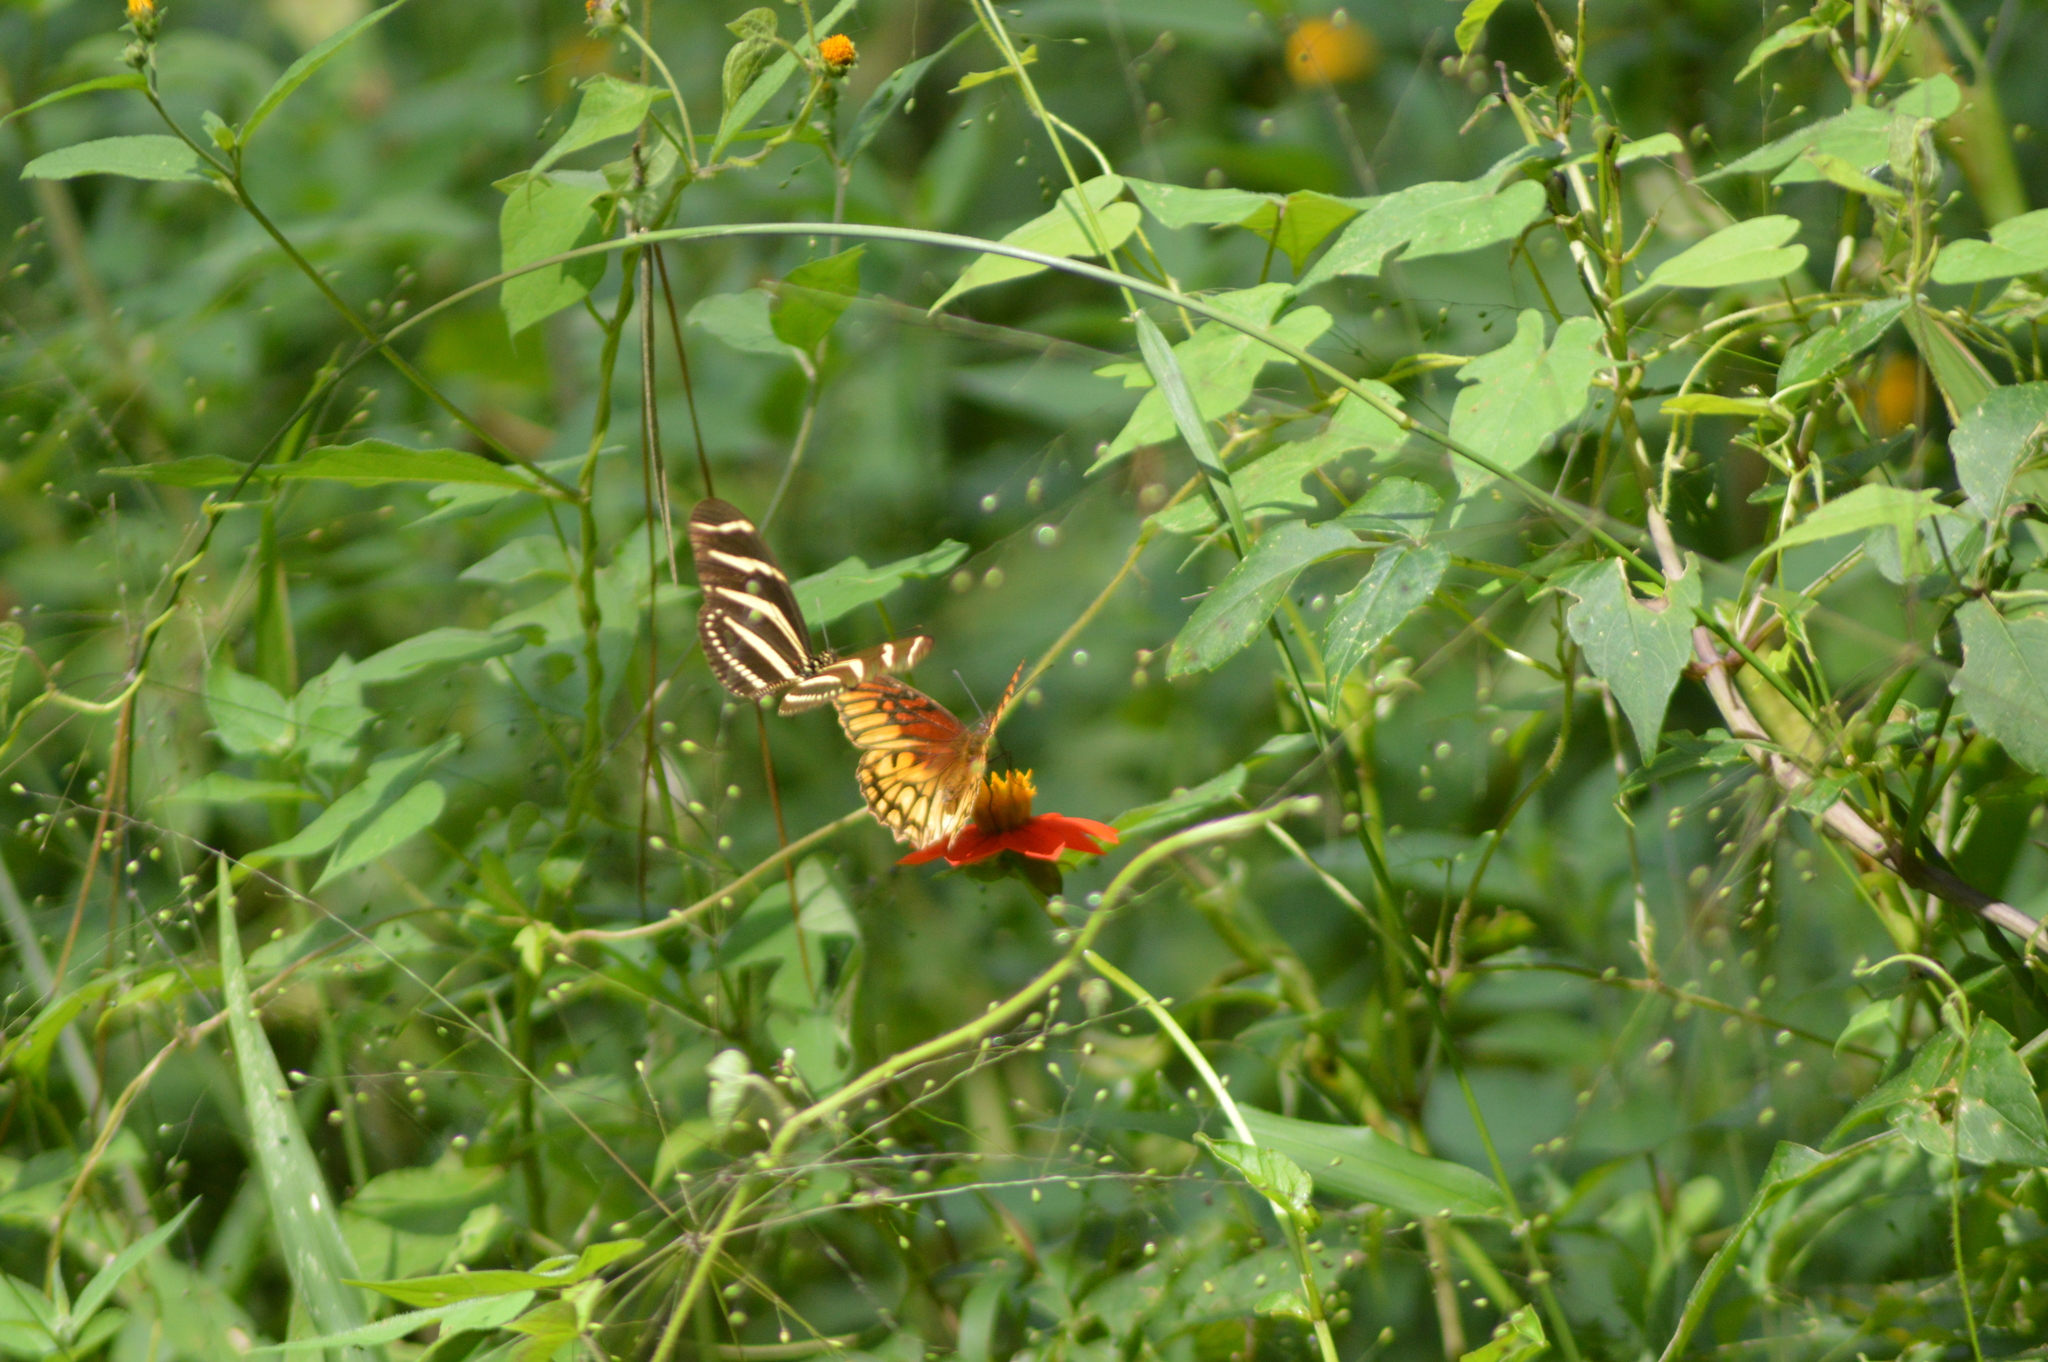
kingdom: Animalia
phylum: Arthropoda
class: Insecta
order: Lepidoptera
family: Nymphalidae
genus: Dione
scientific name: Dione moneta
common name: Mexican silverspot
